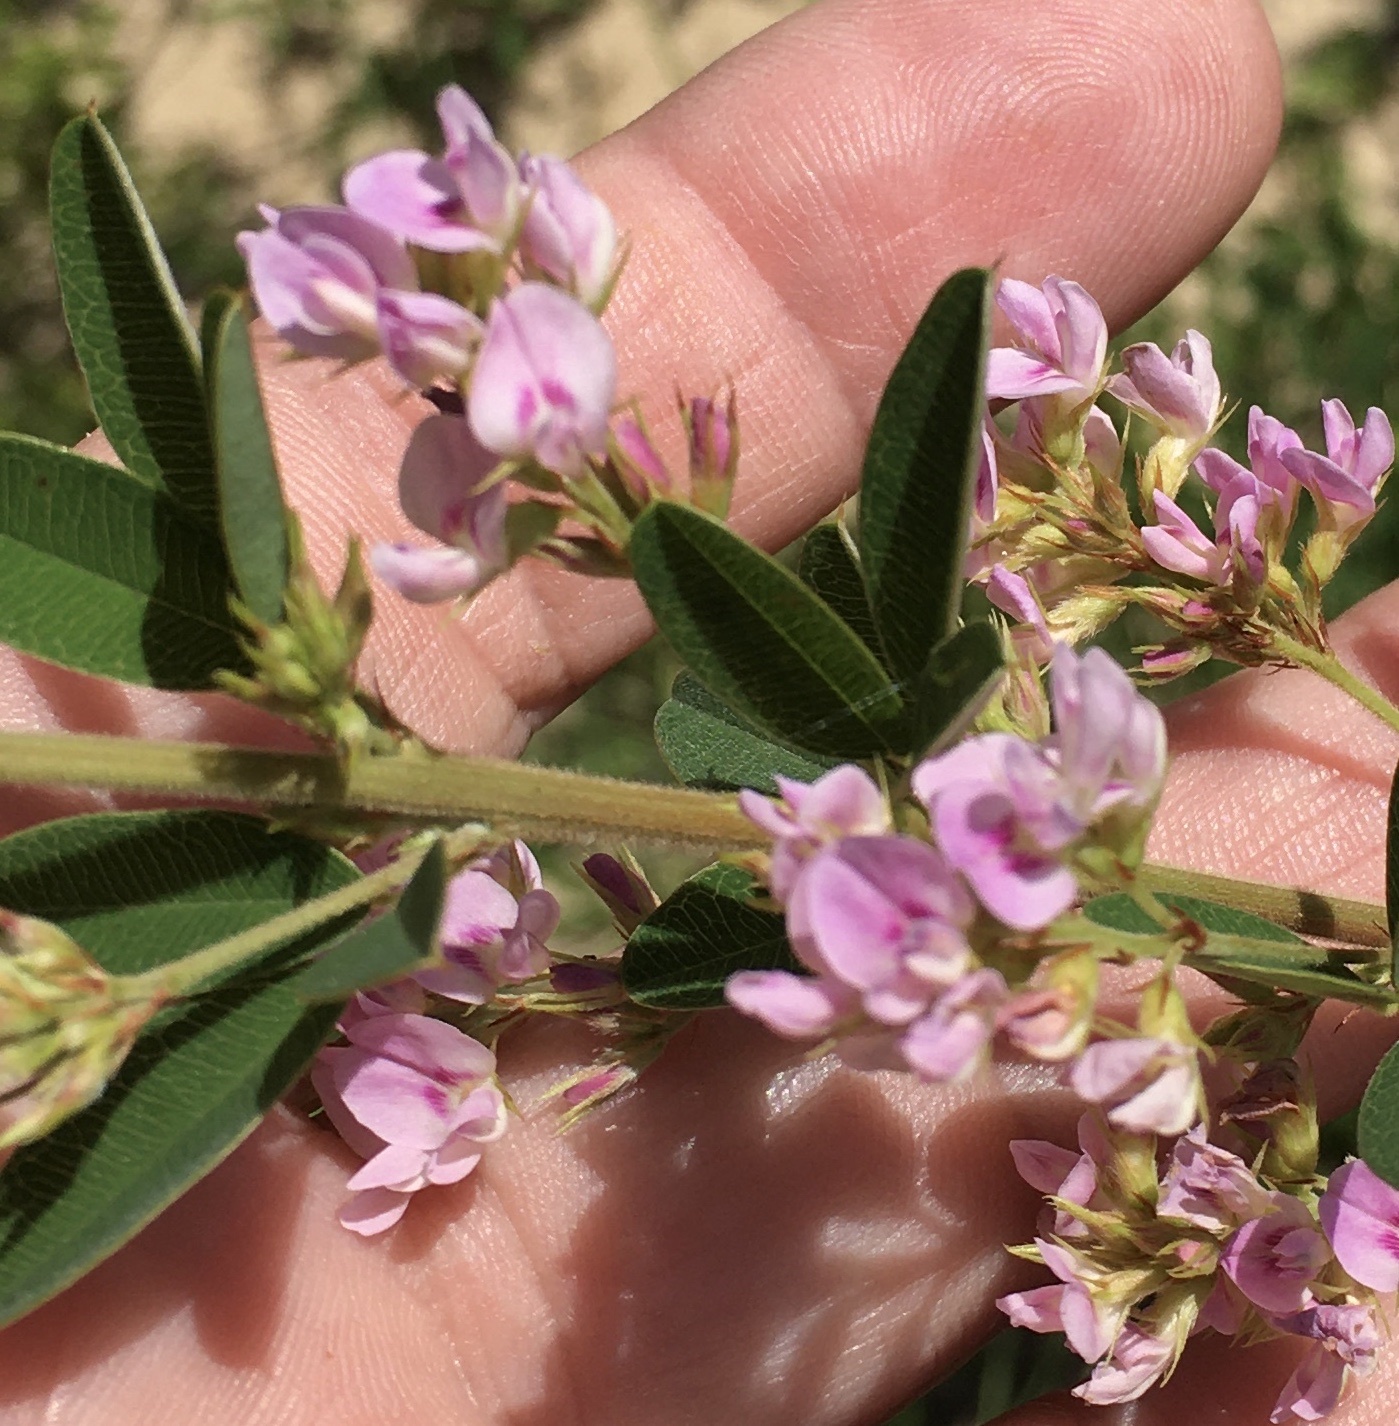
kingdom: Plantae
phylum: Tracheophyta
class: Magnoliopsida
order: Fabales
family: Fabaceae
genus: Lespedeza
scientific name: Lespedeza virginica
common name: Slender bush-clover
